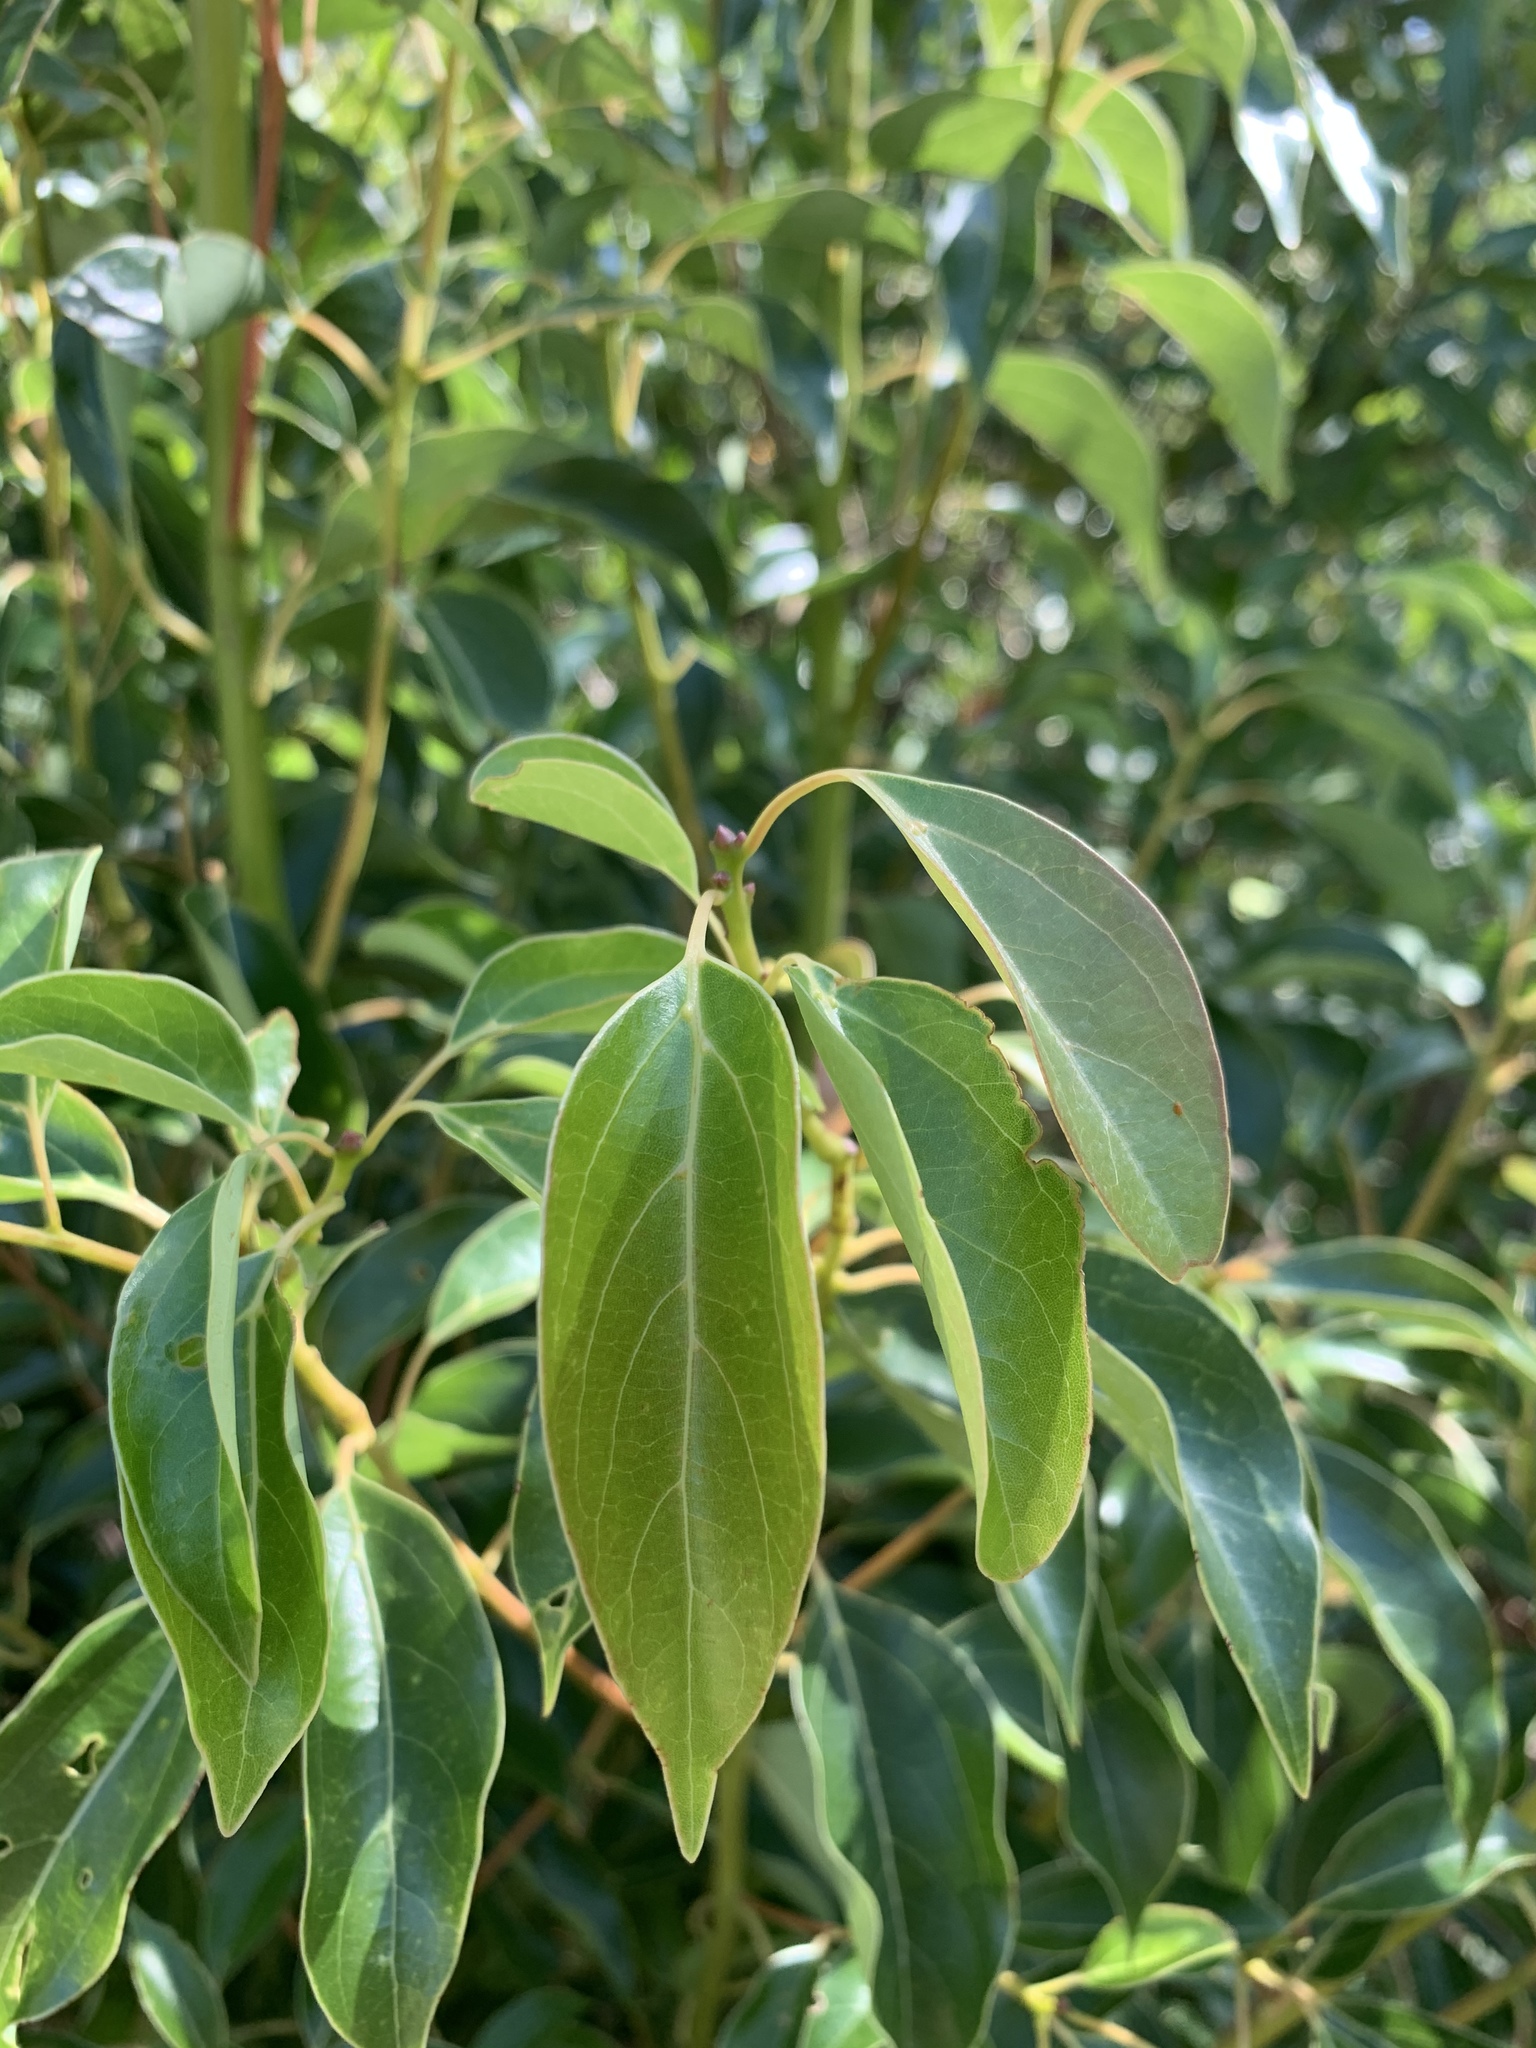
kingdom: Plantae
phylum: Tracheophyta
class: Magnoliopsida
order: Laurales
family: Lauraceae
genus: Cinnamomum
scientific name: Cinnamomum camphora
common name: Camphortree
